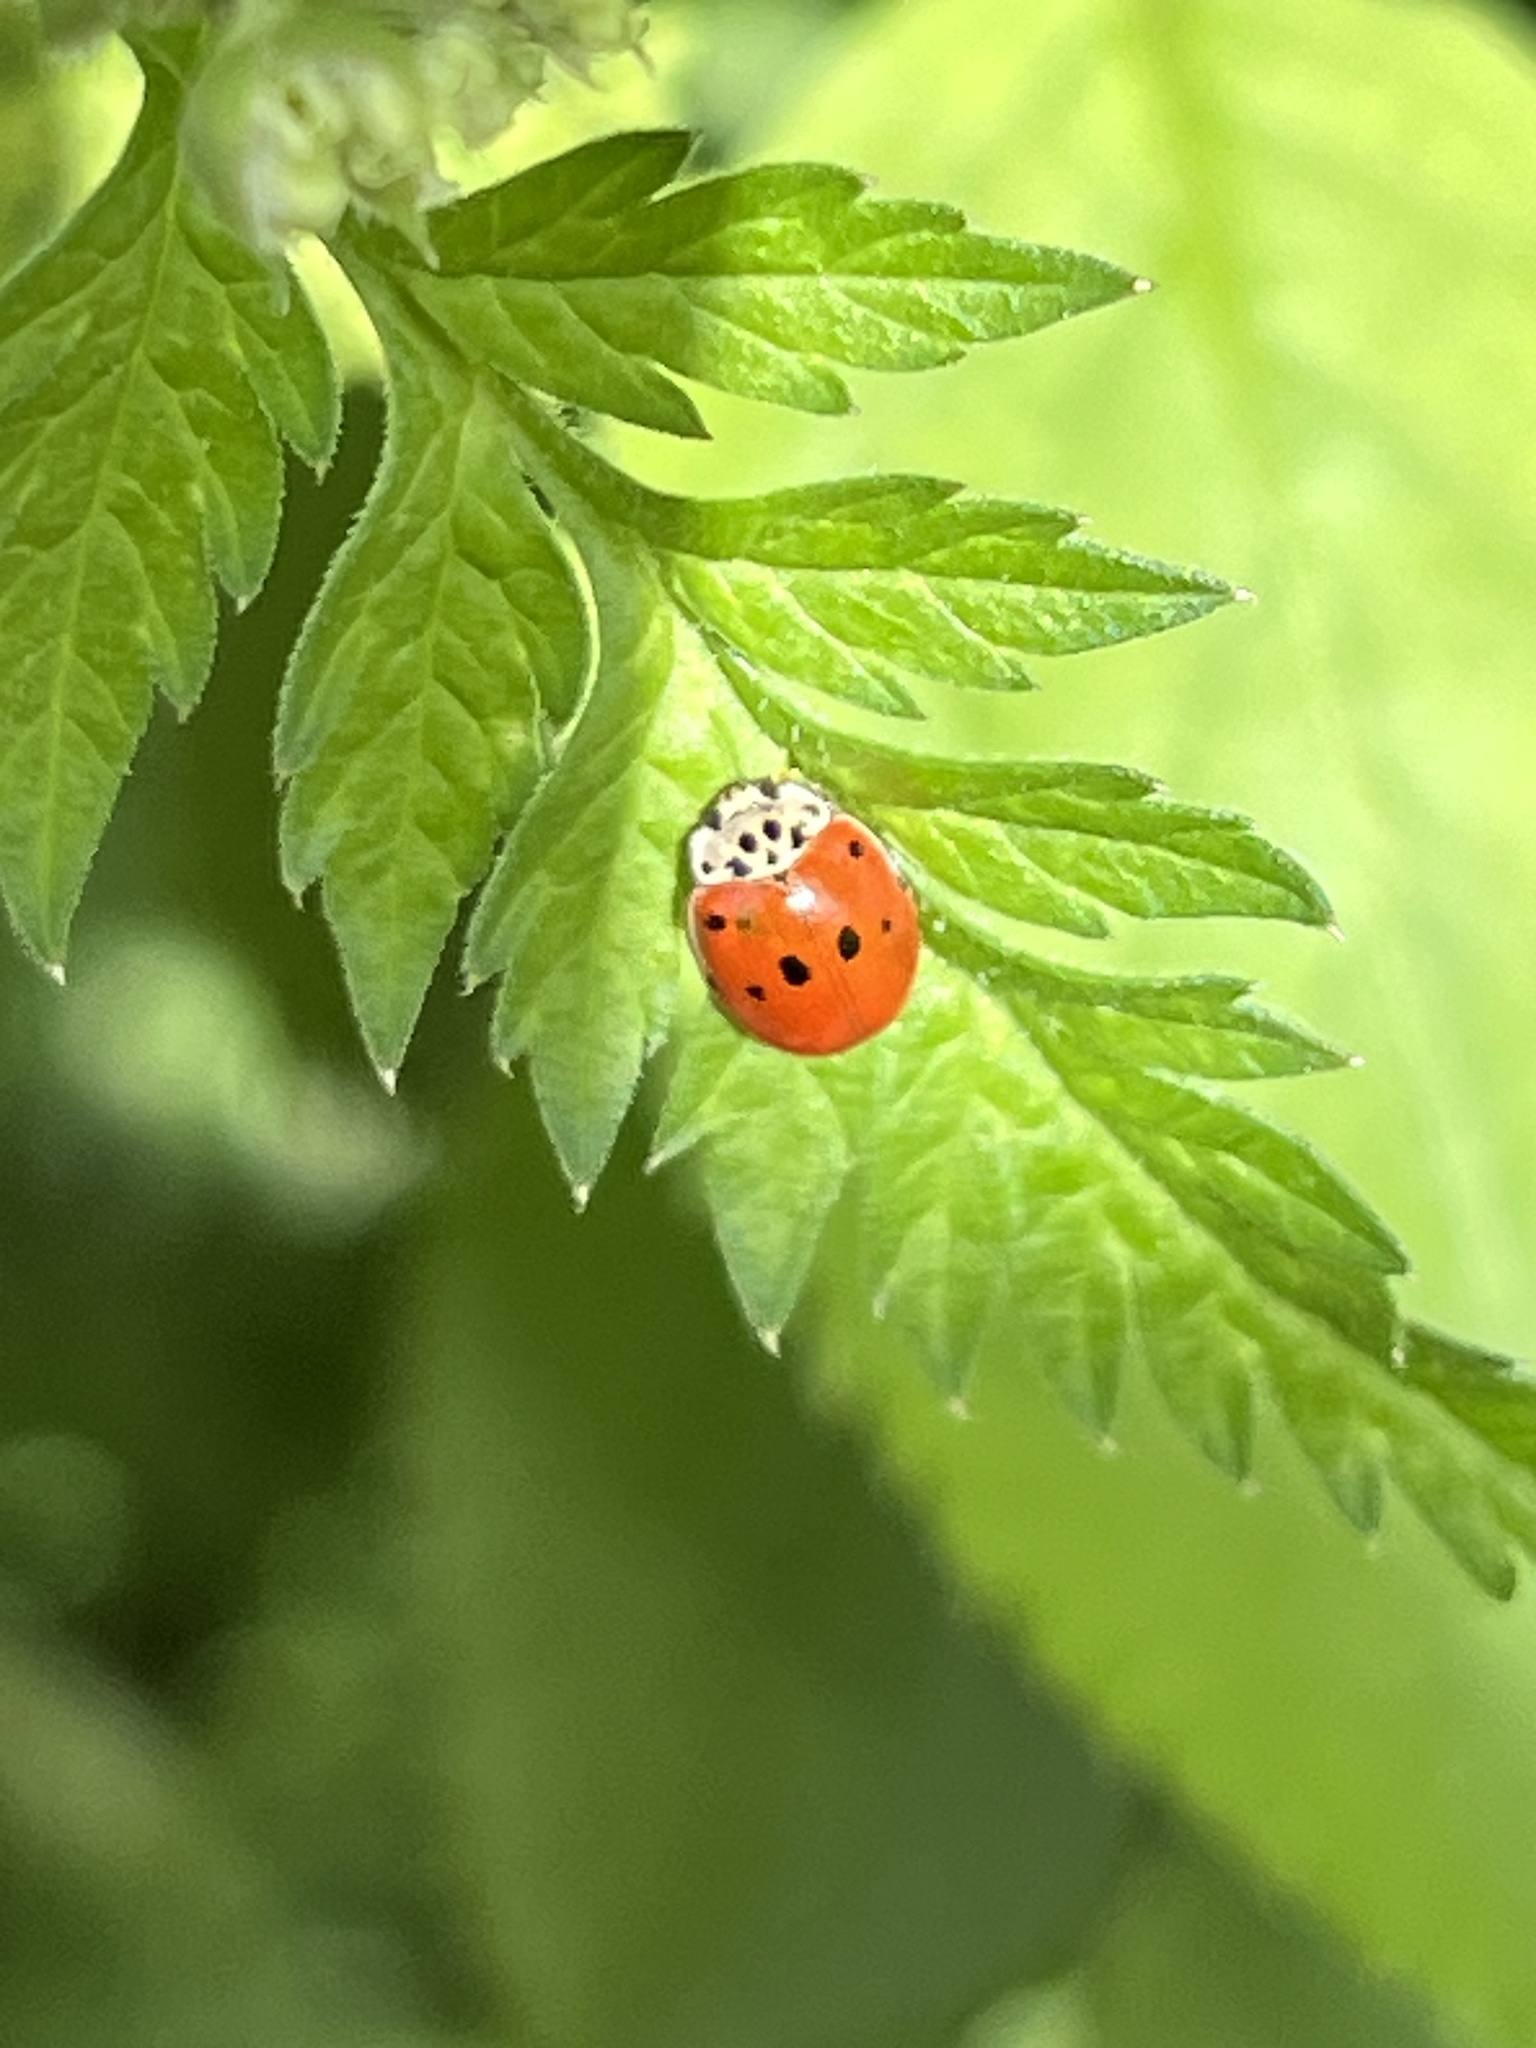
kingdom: Animalia
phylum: Arthropoda
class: Insecta
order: Coleoptera
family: Coccinellidae
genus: Adalia
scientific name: Adalia decempunctata
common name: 10-spot ladybird
